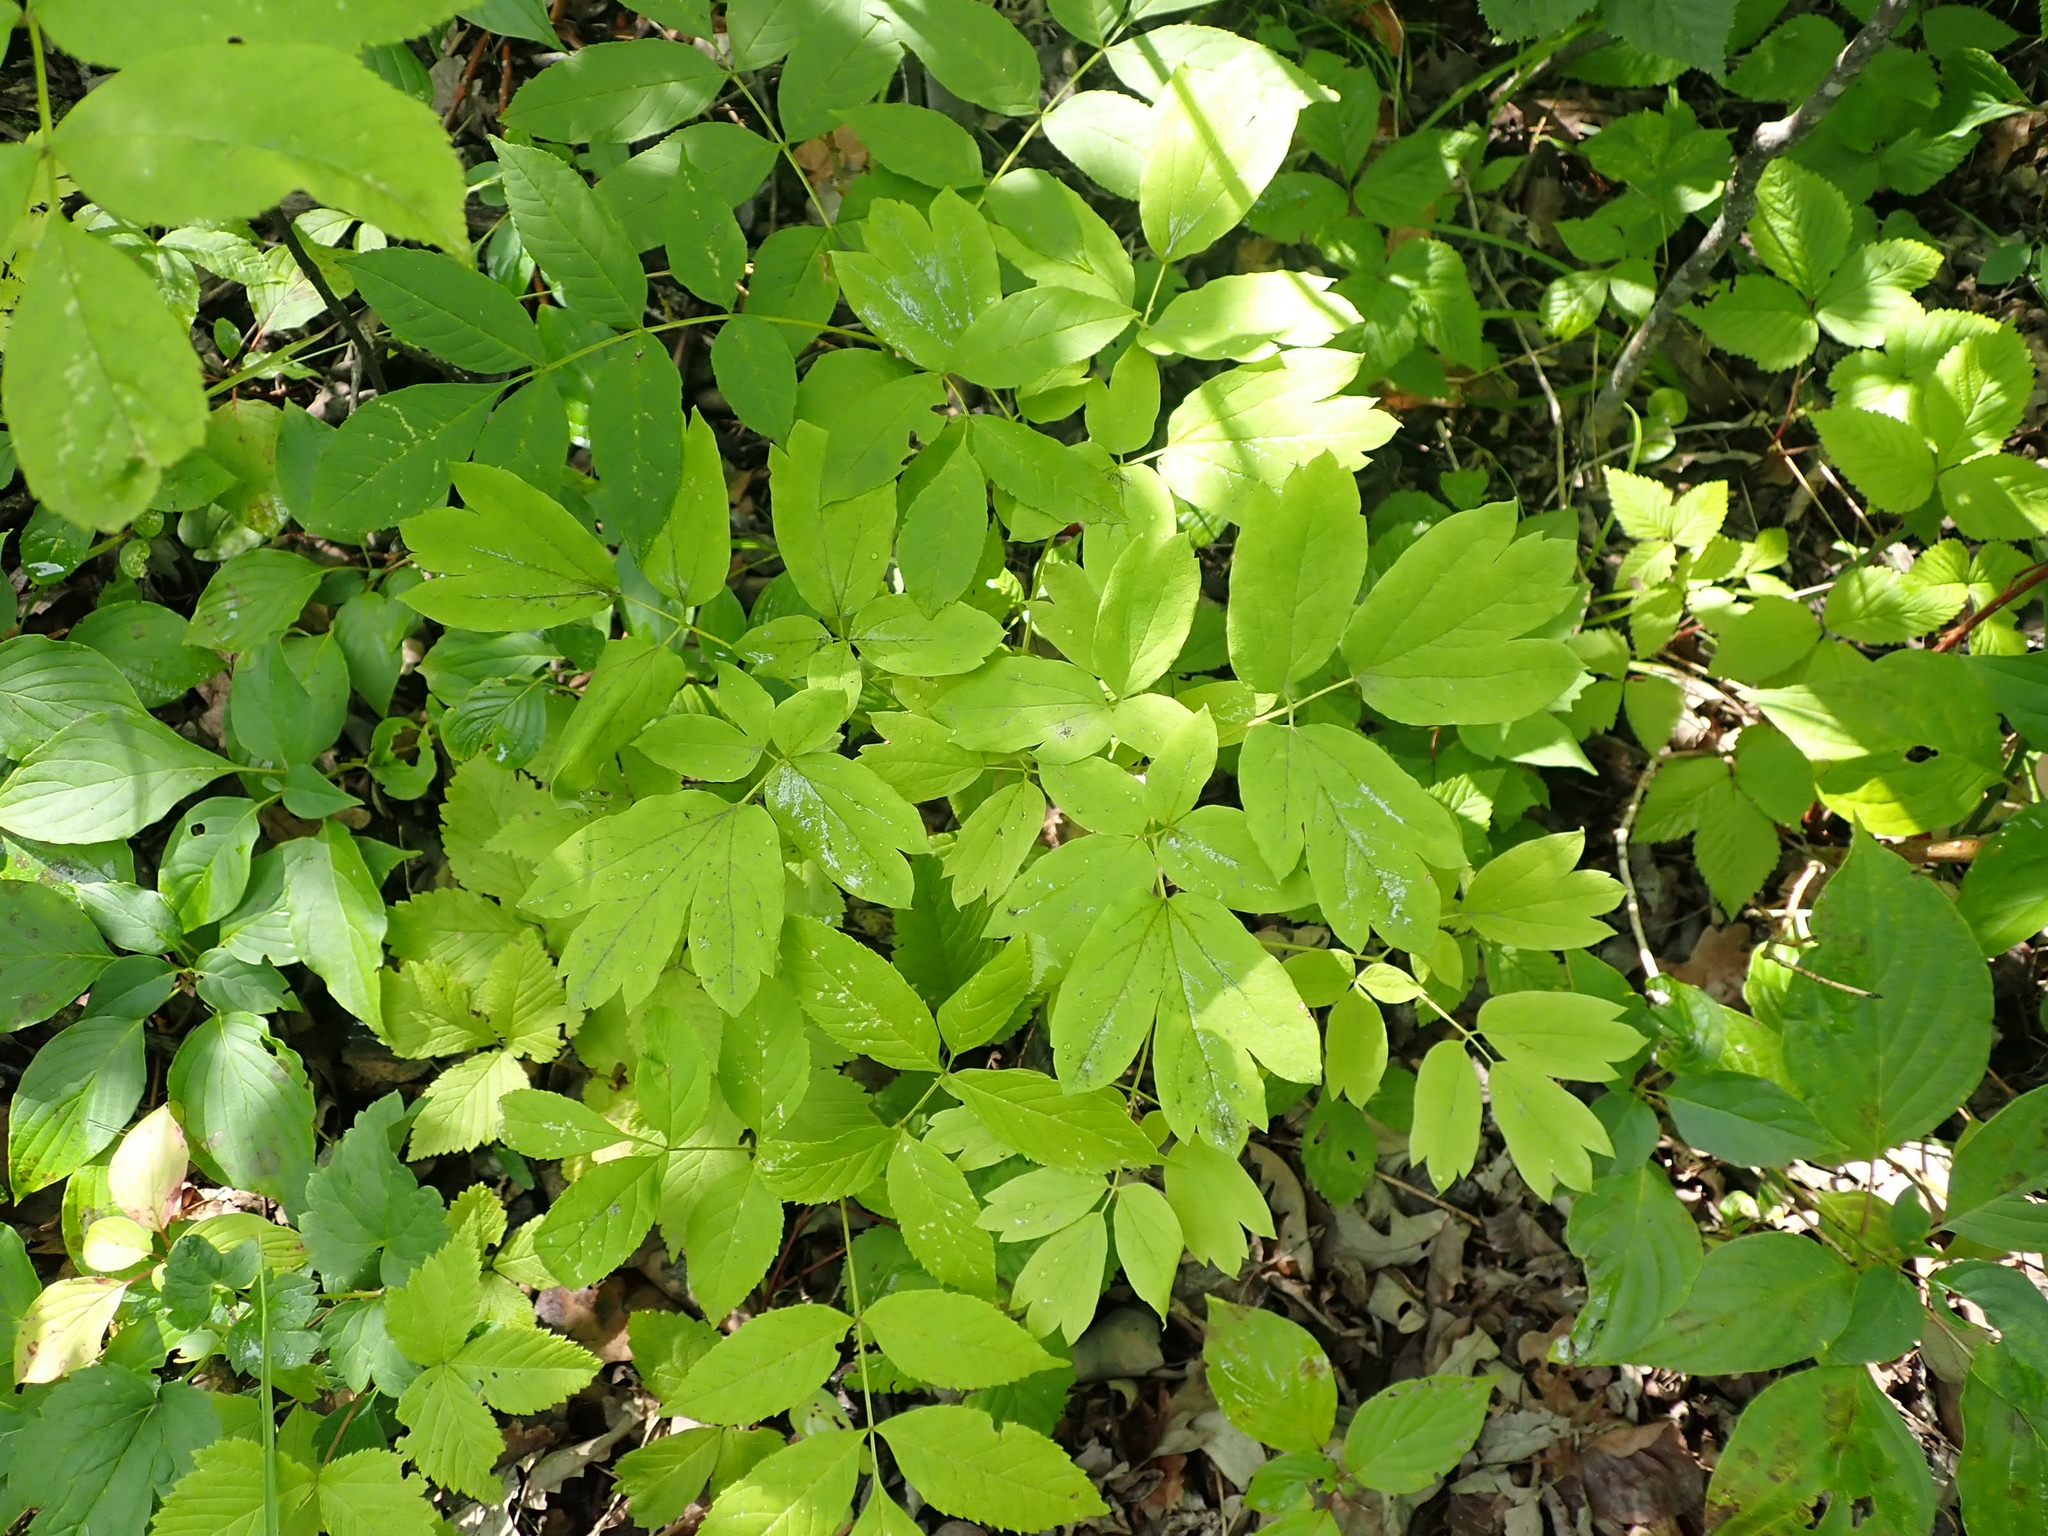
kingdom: Plantae
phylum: Tracheophyta
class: Magnoliopsida
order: Ranunculales
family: Berberidaceae
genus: Caulophyllum
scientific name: Caulophyllum thalictroides
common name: Blue cohosh
